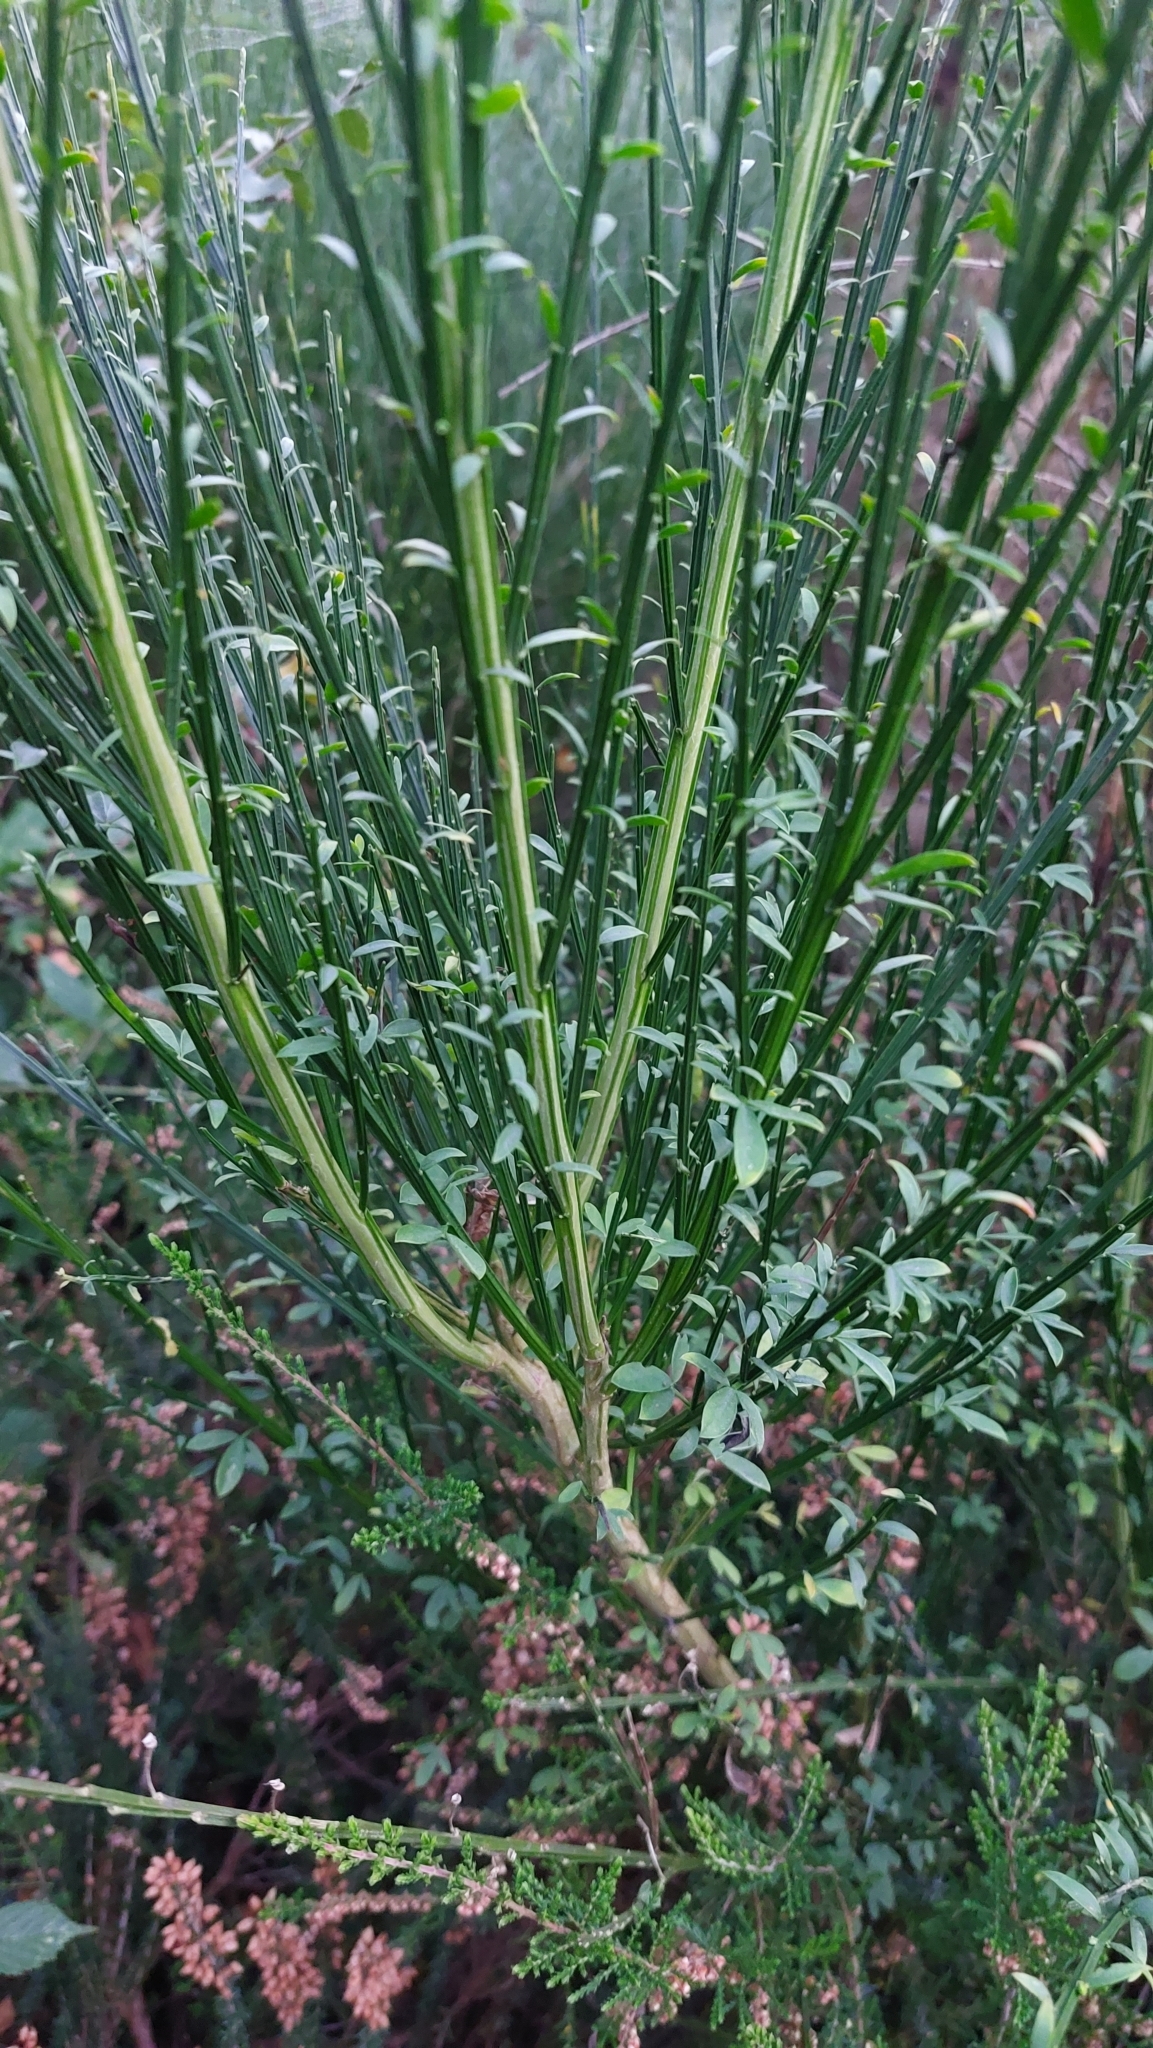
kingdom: Plantae
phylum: Tracheophyta
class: Magnoliopsida
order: Fabales
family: Fabaceae
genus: Cytisus
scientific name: Cytisus scoparius
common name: Scotch broom
